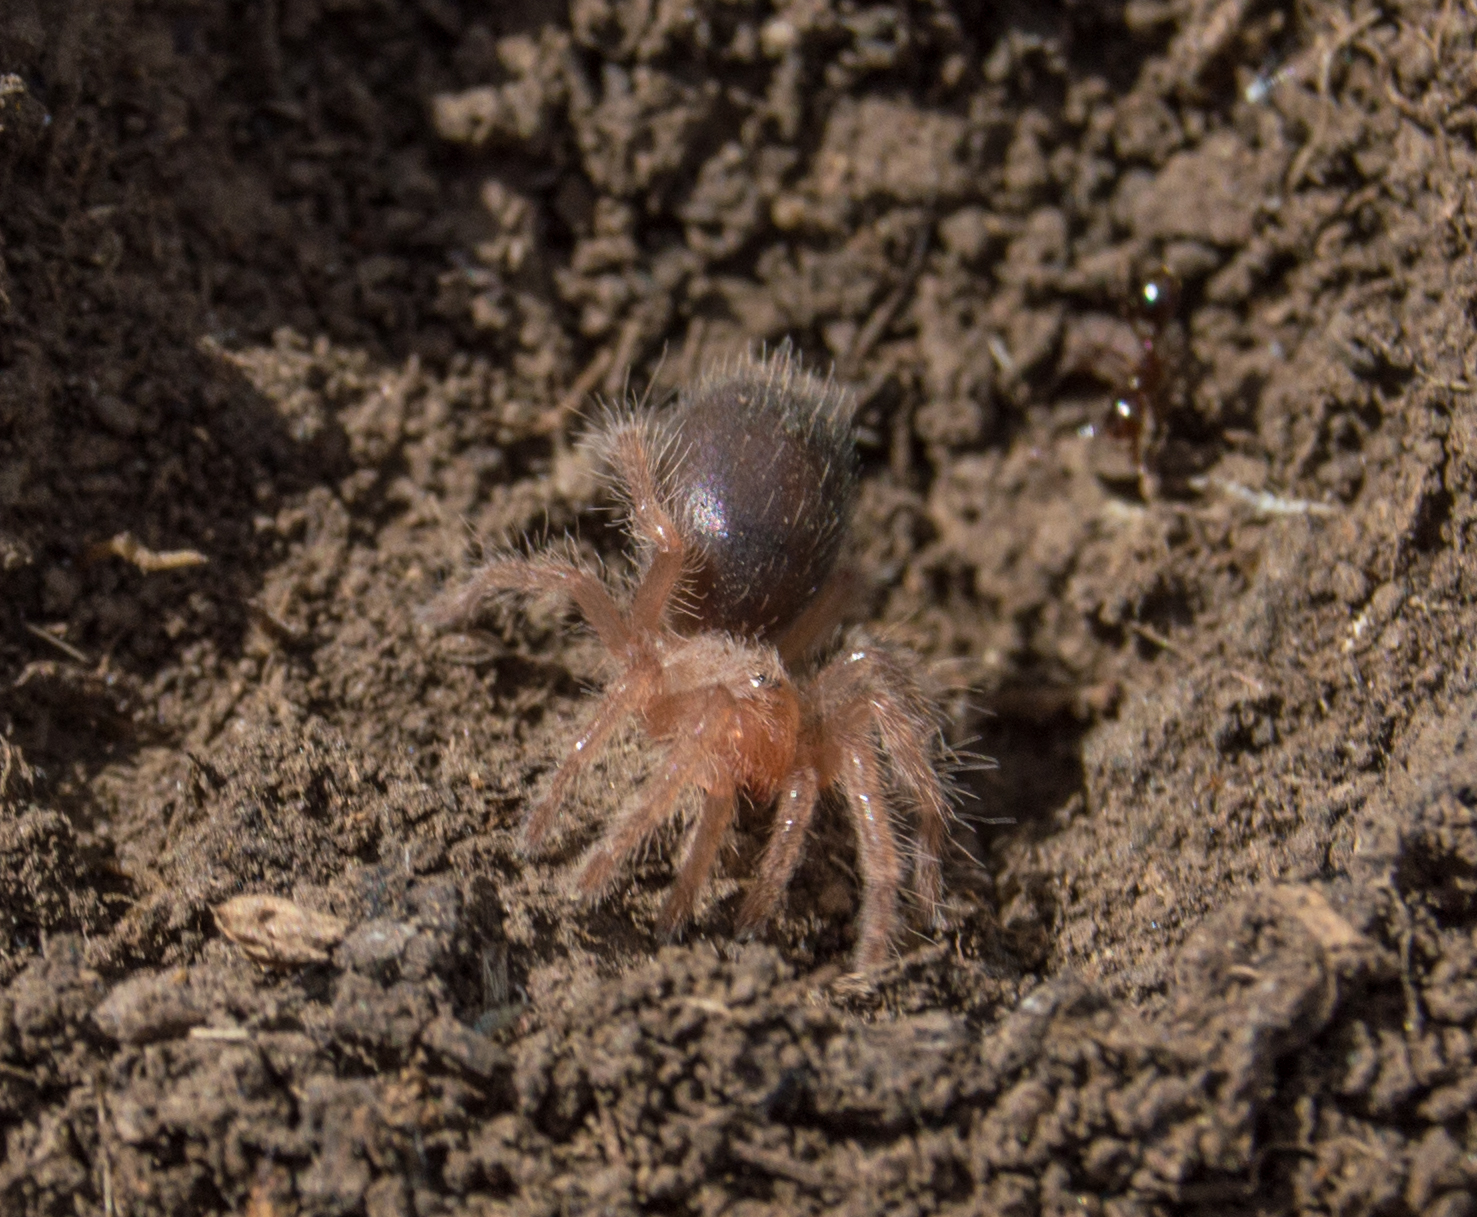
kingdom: Animalia
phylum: Arthropoda
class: Arachnida
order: Araneae
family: Theraphosidae
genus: Grammostola
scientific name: Grammostola vachoni
